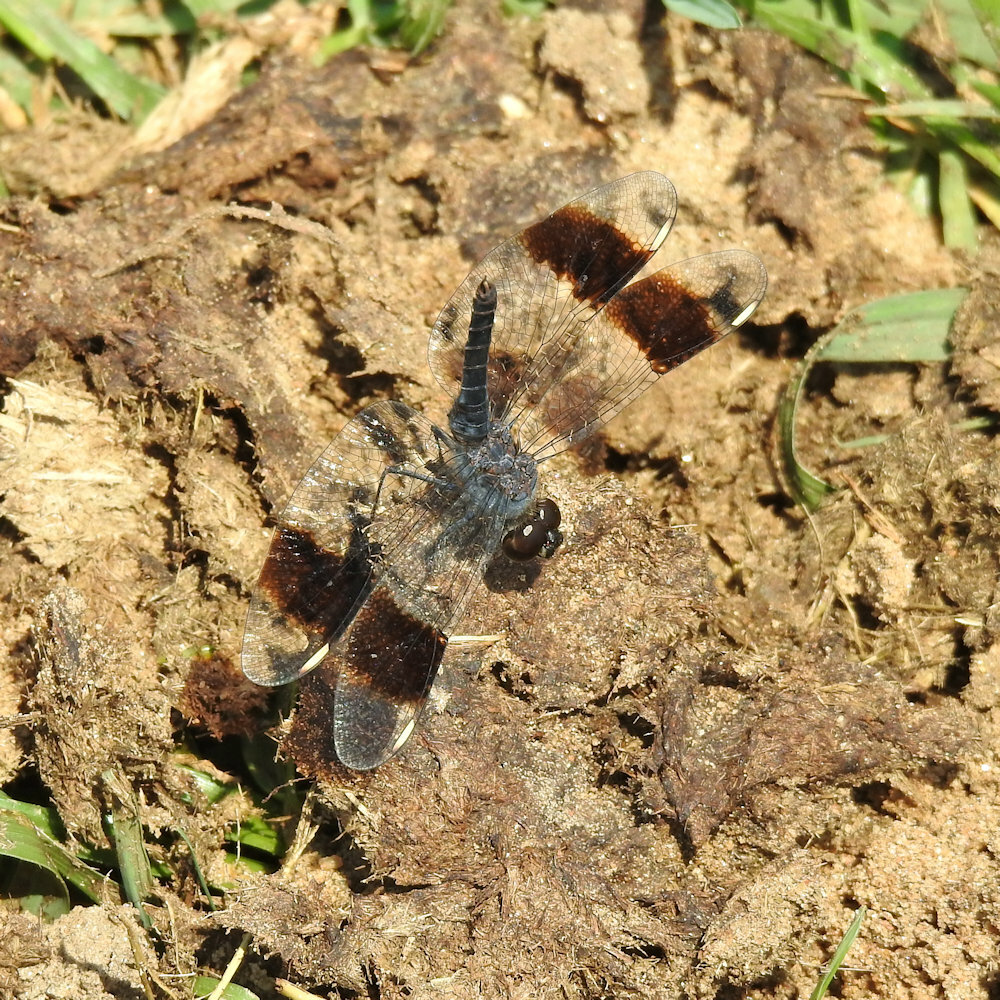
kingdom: Animalia
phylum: Arthropoda
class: Insecta
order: Odonata
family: Libellulidae
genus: Brachythemis
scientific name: Brachythemis leucosticta
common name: Banded groundling
